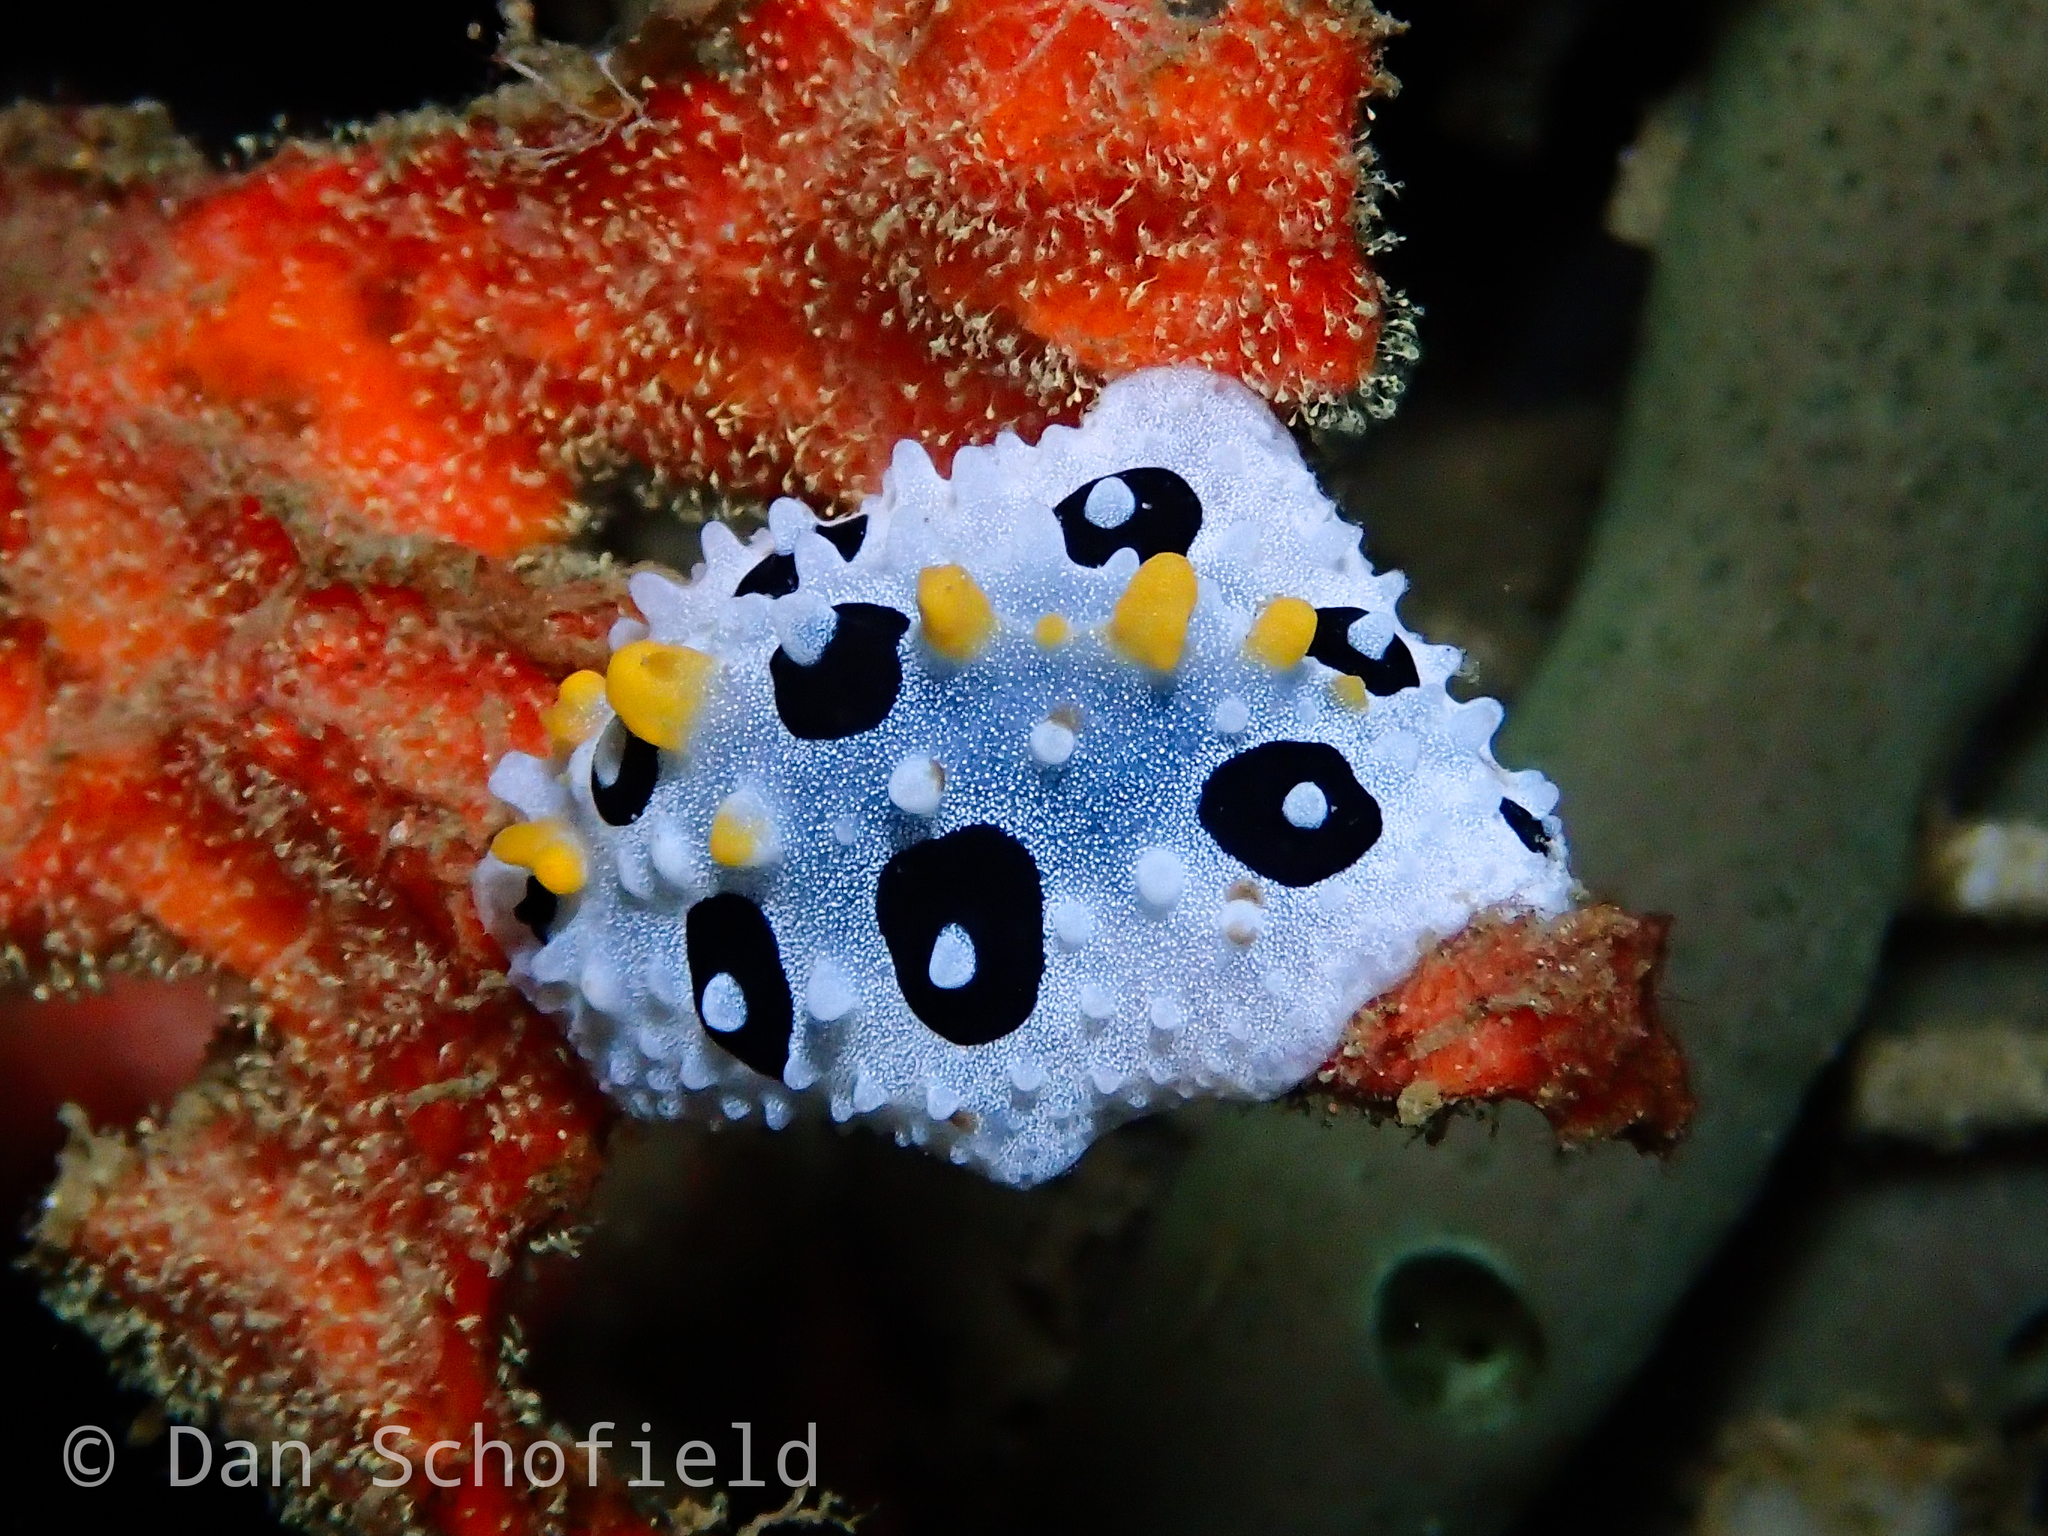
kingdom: Animalia
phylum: Mollusca
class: Gastropoda
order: Nudibranchia
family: Phyllidiidae
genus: Phyllidia
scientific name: Phyllidia babai
